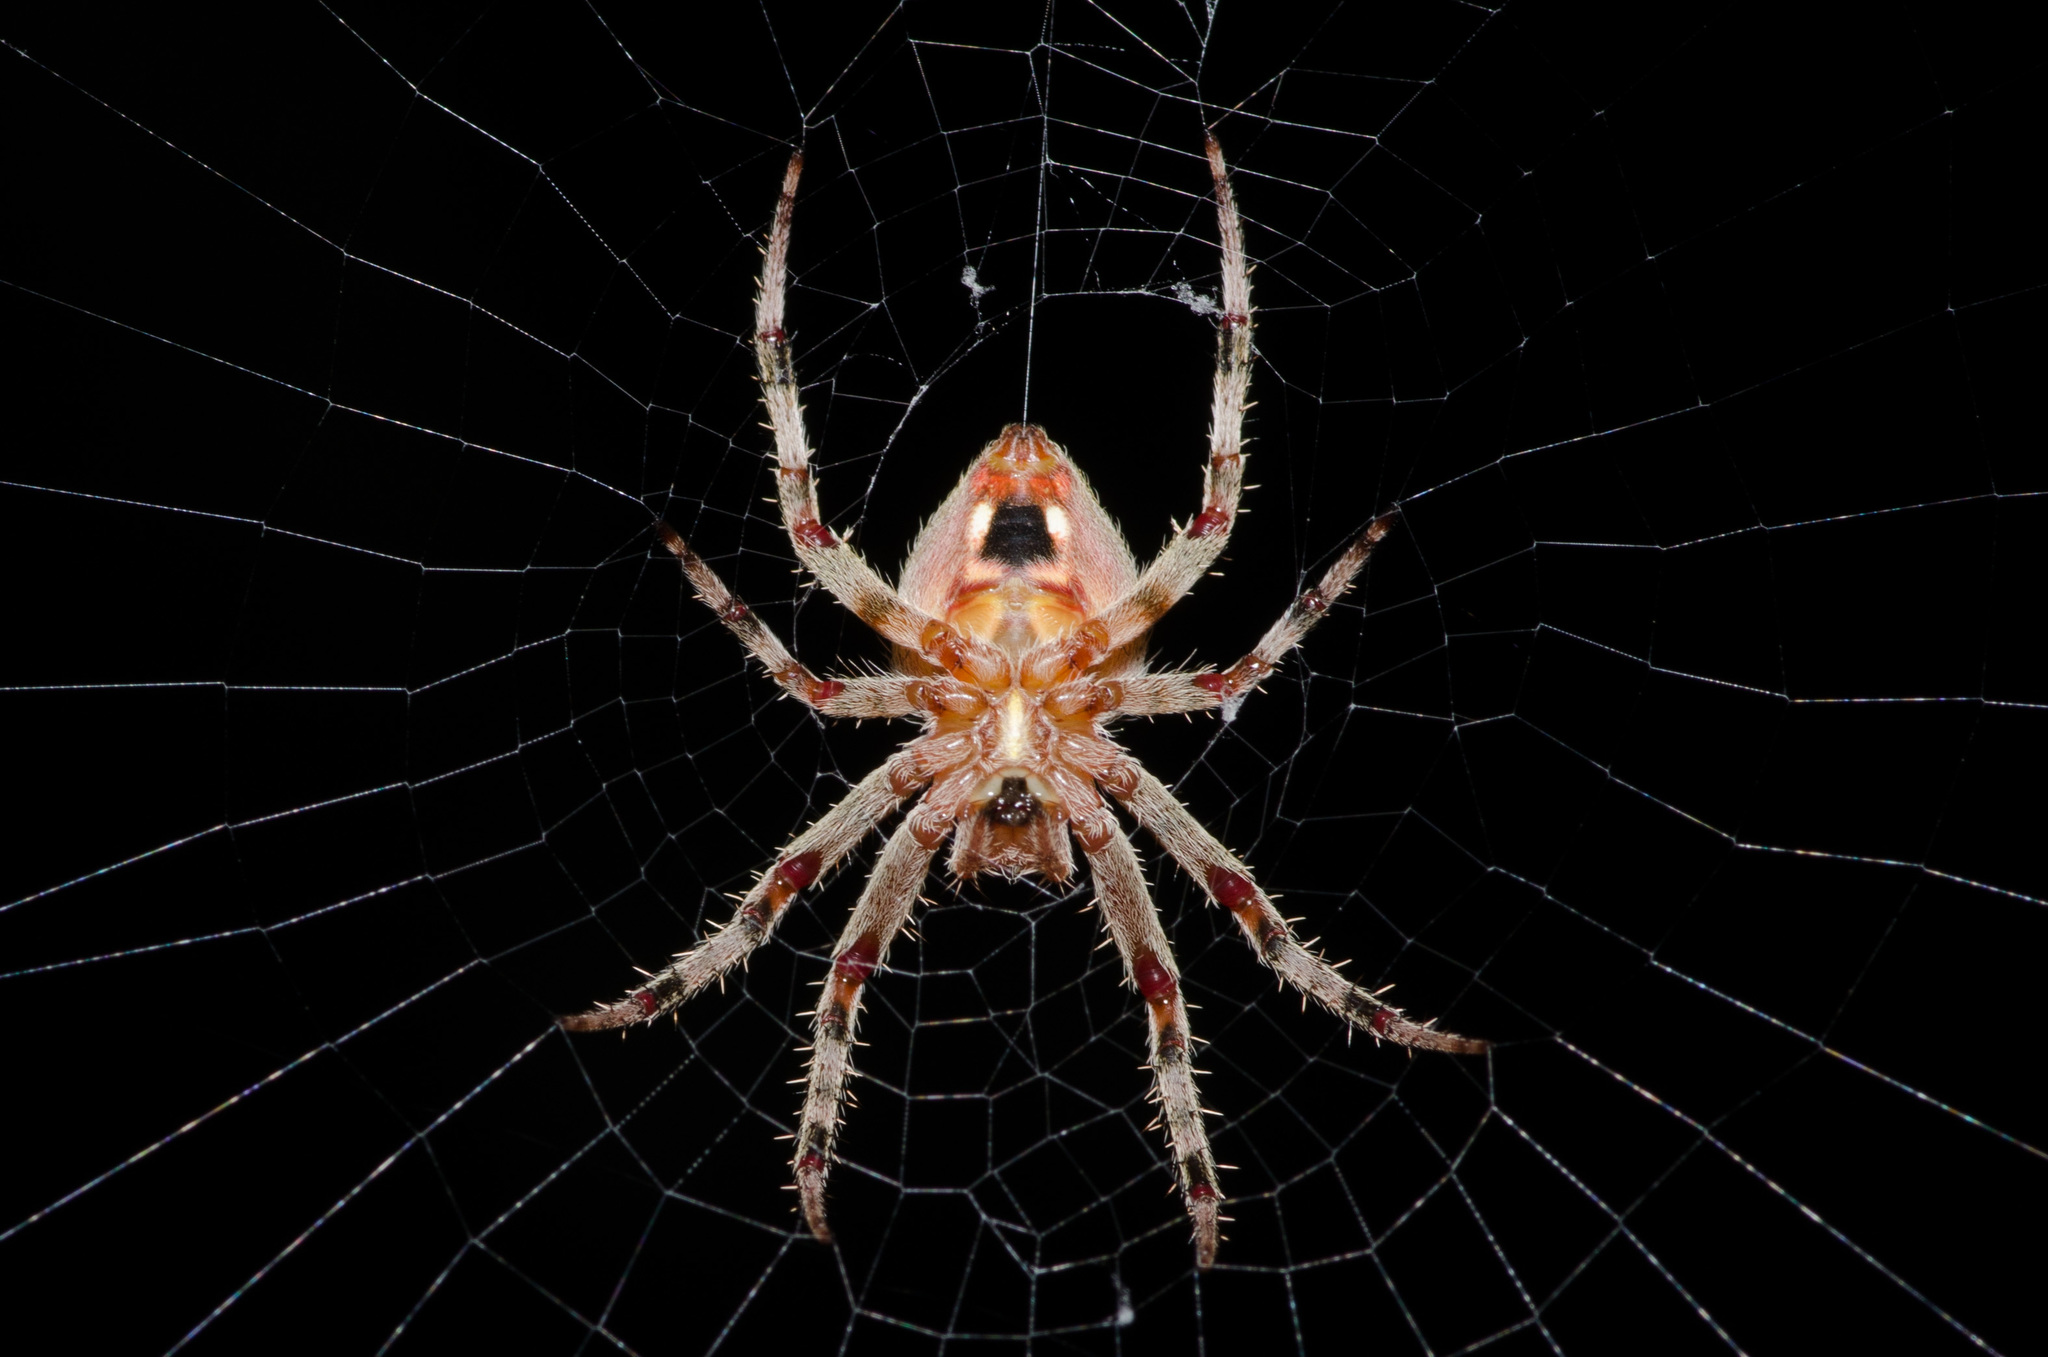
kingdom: Animalia
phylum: Arthropoda
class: Arachnida
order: Araneae
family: Araneidae
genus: Neoscona
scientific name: Neoscona crucifera
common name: Spotted orbweaver
